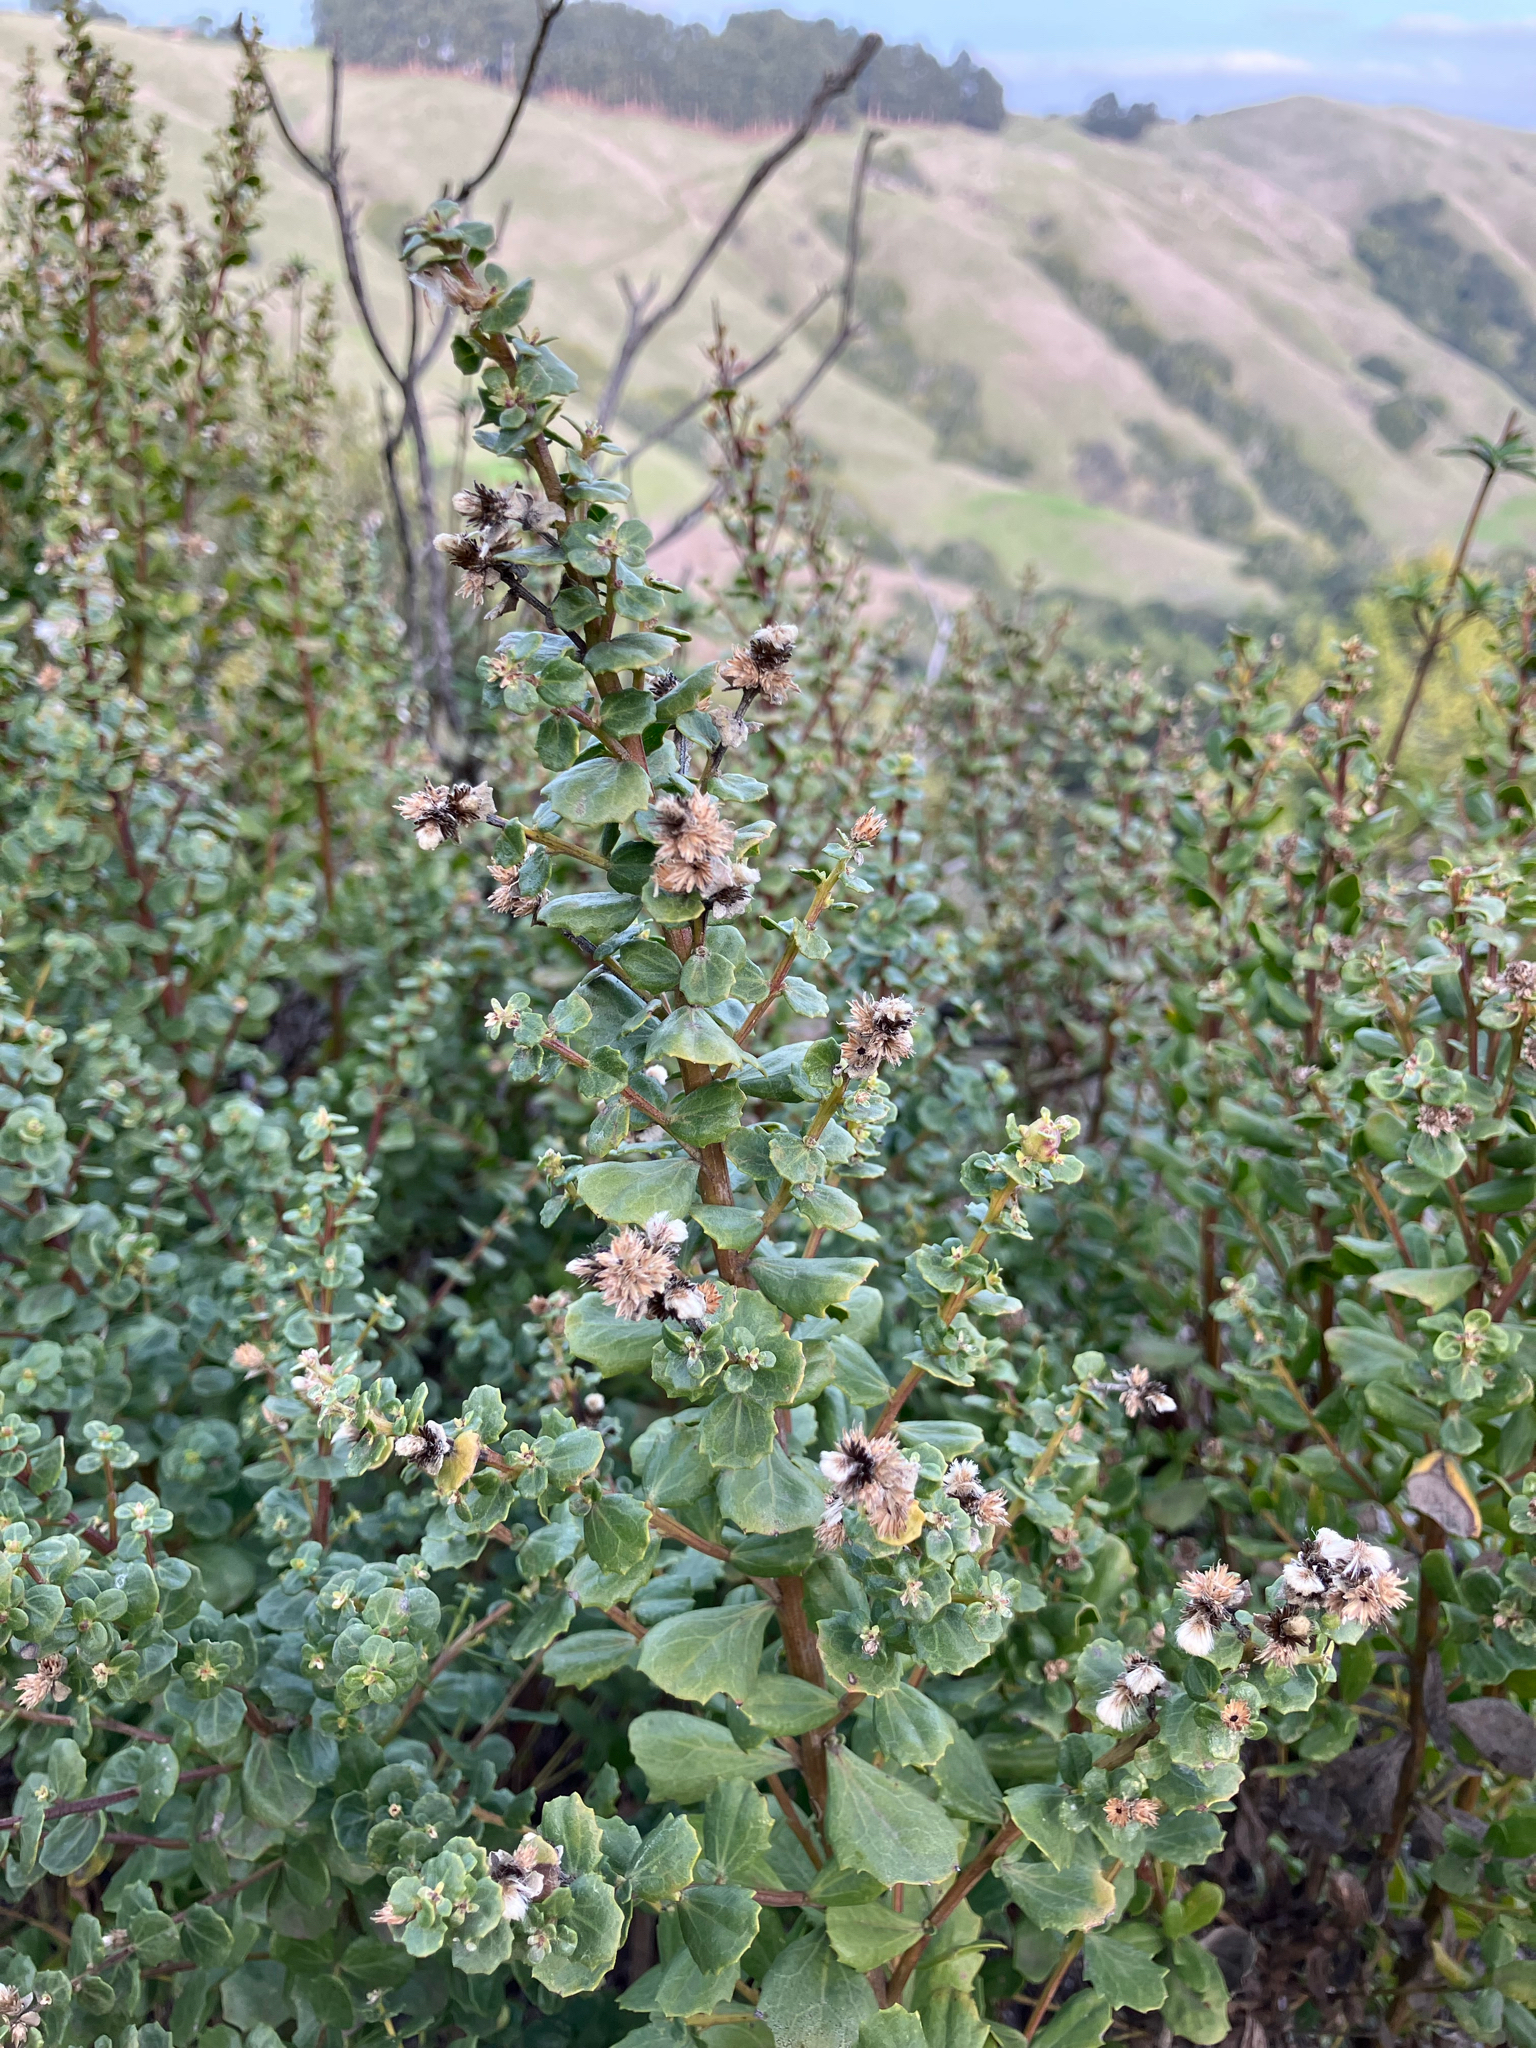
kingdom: Plantae
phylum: Tracheophyta
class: Magnoliopsida
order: Asterales
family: Asteraceae
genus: Baccharis
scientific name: Baccharis pilularis
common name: Coyotebrush
